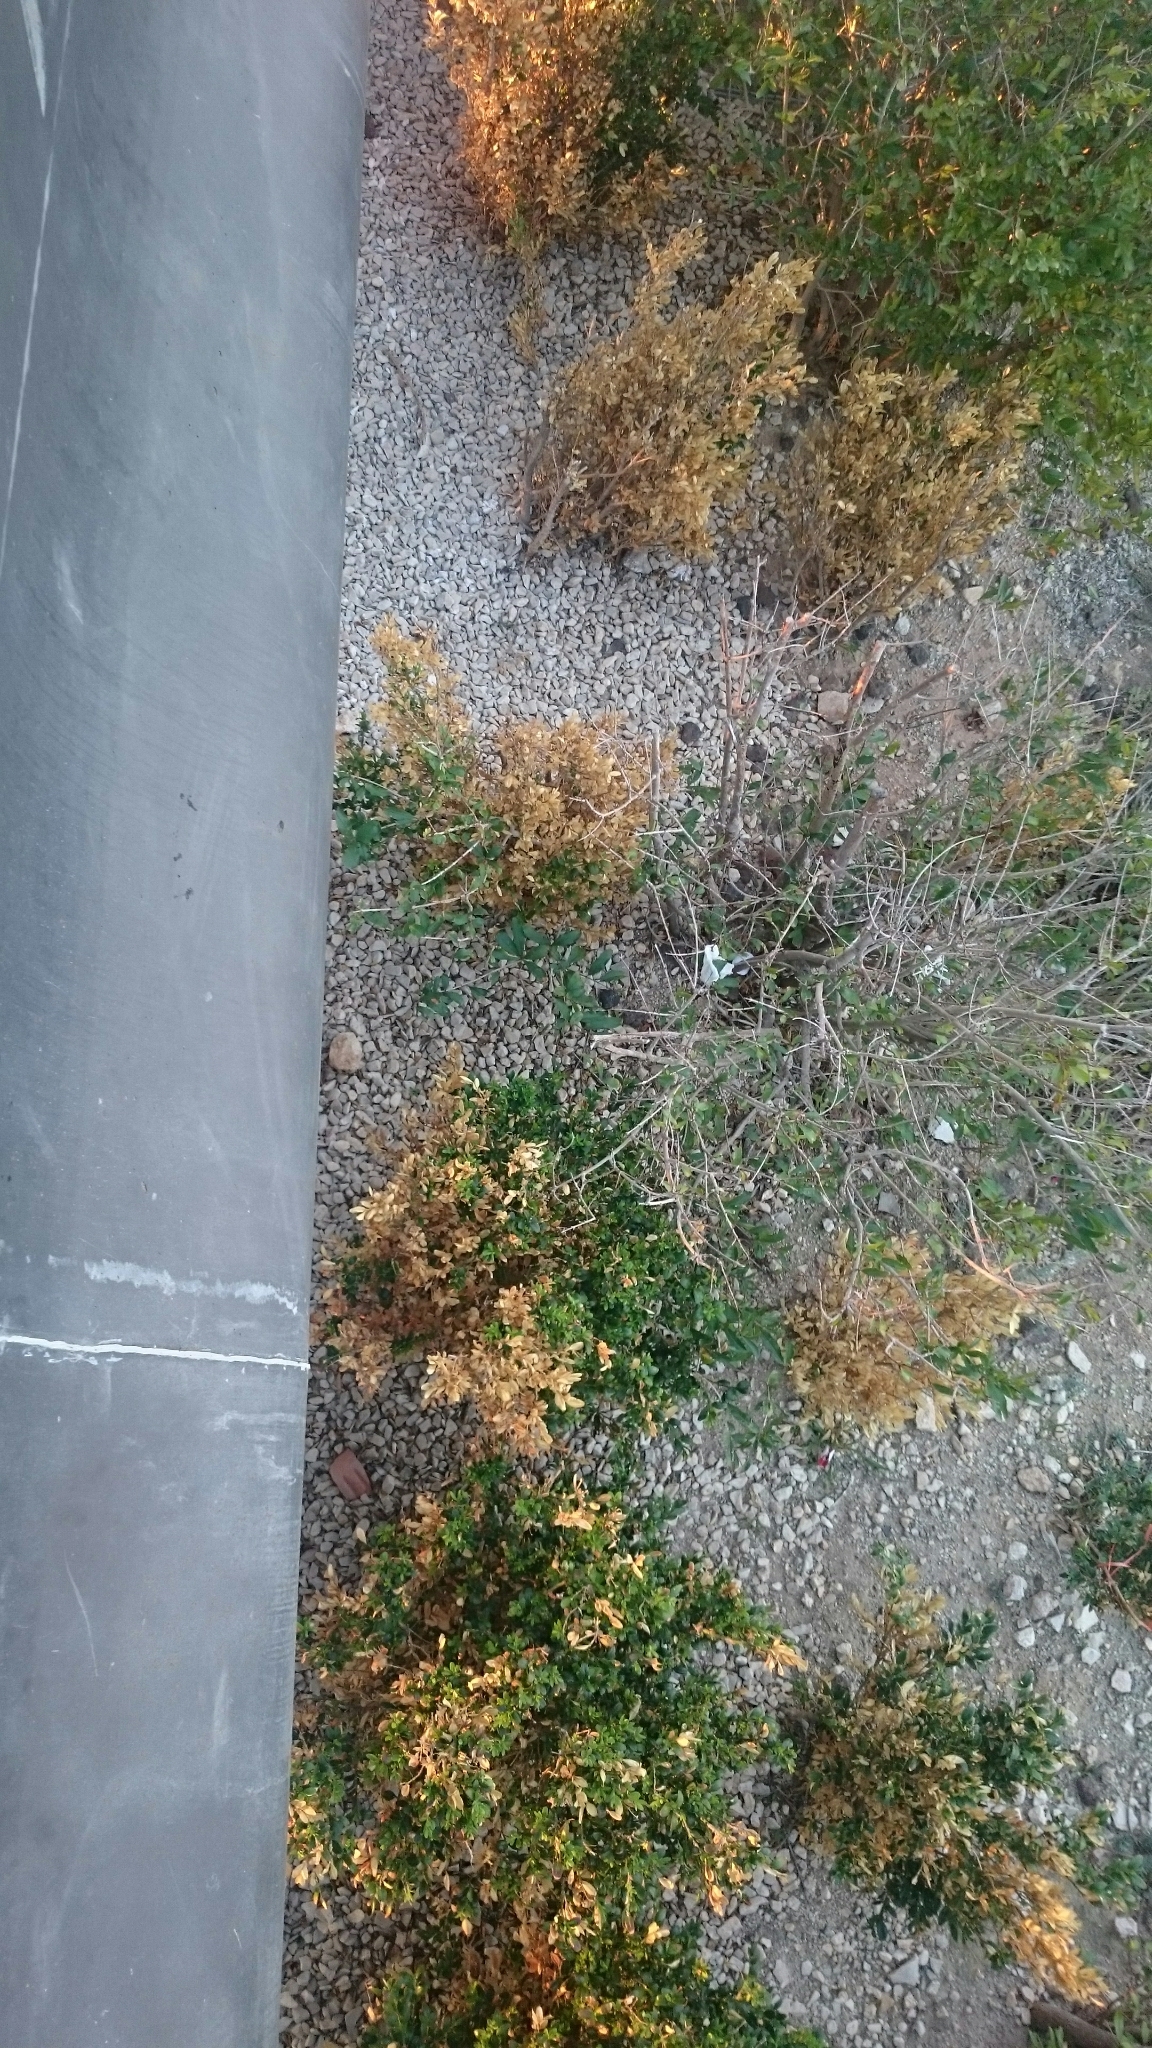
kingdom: Animalia
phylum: Arthropoda
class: Insecta
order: Lepidoptera
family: Crambidae
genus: Cydalima
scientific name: Cydalima perspectalis
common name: Box tree moth
